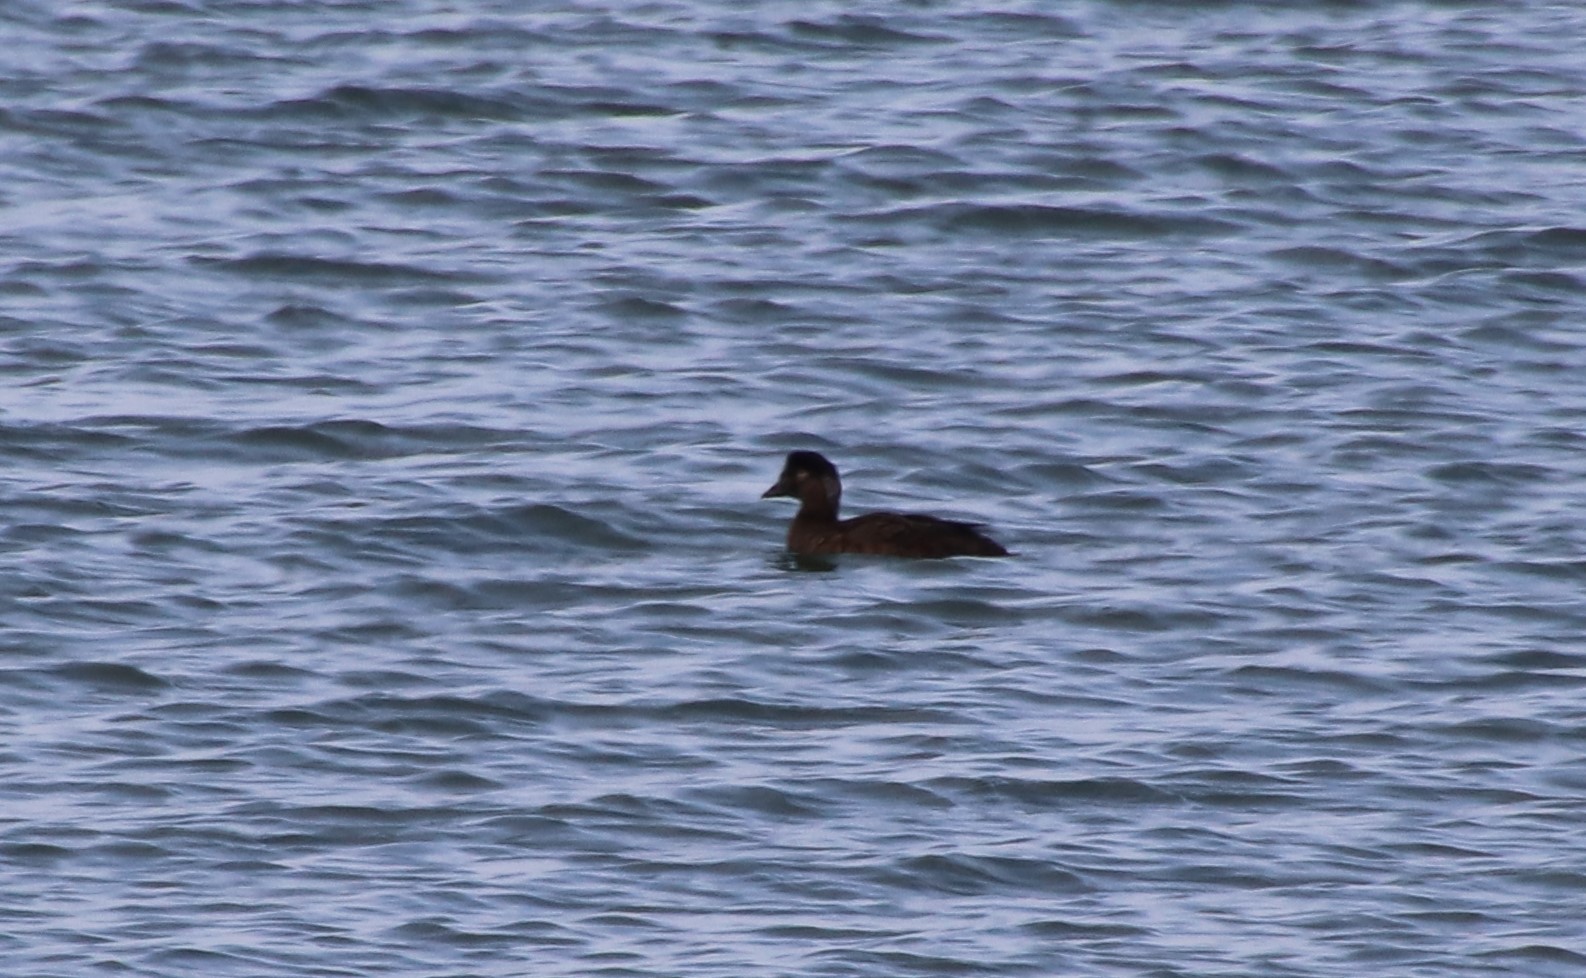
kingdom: Animalia
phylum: Chordata
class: Aves
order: Anseriformes
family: Anatidae
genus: Melanitta
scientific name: Melanitta perspicillata
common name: Surf scoter
